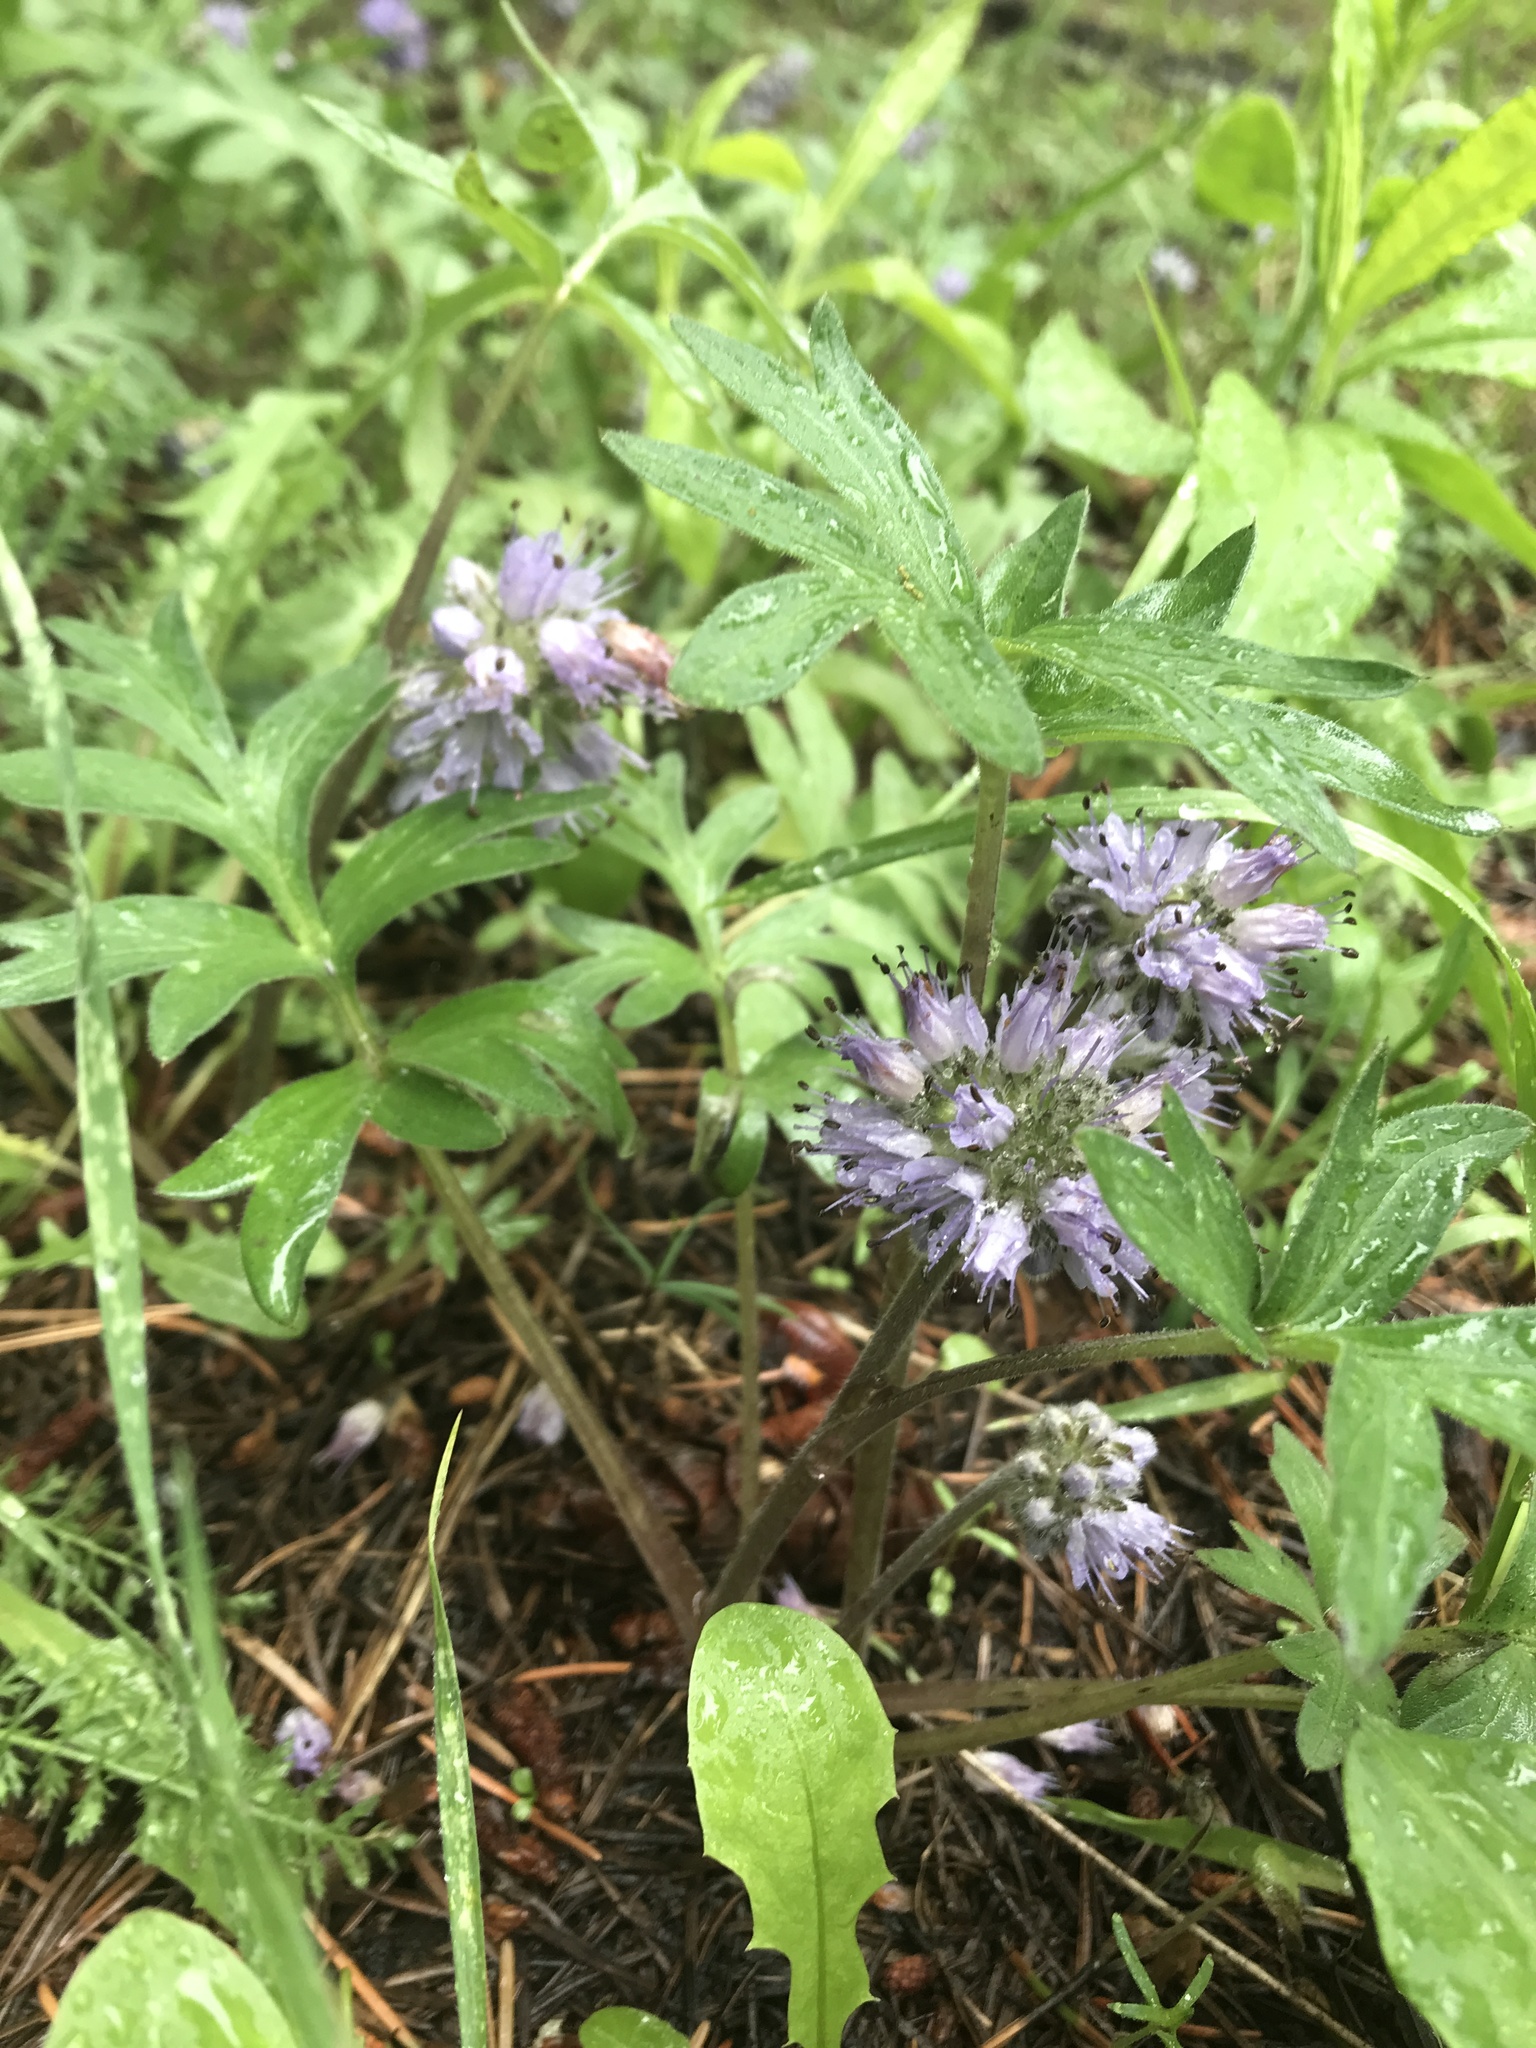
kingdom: Plantae
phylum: Tracheophyta
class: Magnoliopsida
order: Boraginales
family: Hydrophyllaceae
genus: Hydrophyllum
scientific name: Hydrophyllum capitatum
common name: Woollen-breeches
